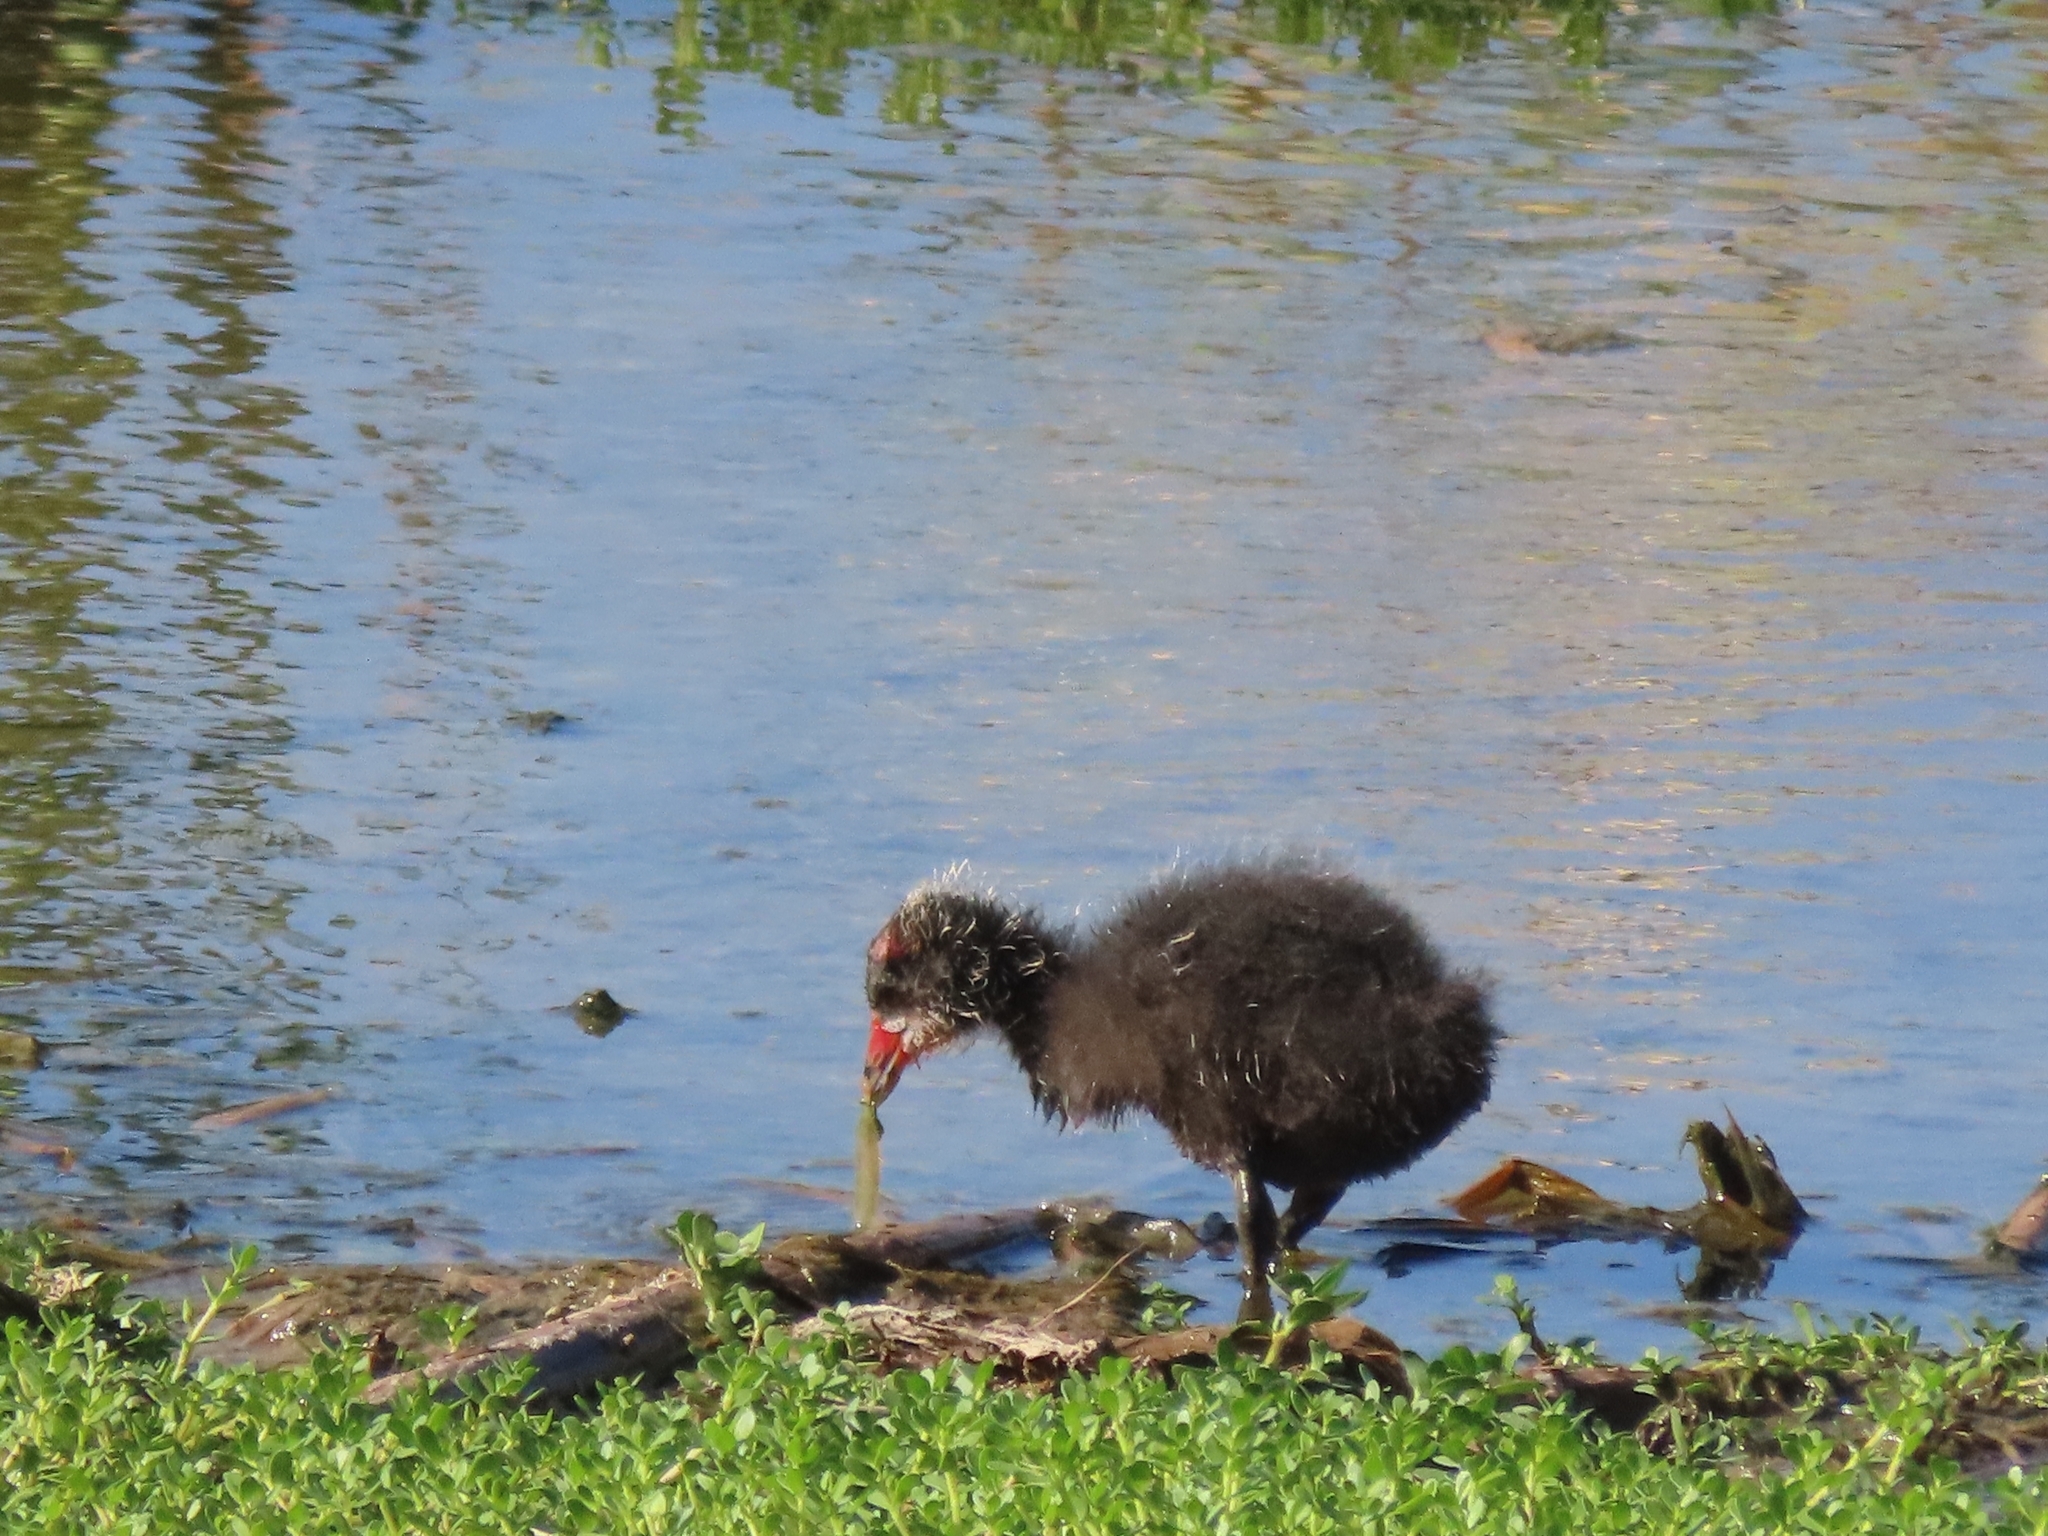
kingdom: Animalia
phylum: Chordata
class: Aves
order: Gruiformes
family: Rallidae
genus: Gallinula
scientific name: Gallinula chloropus
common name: Common moorhen
